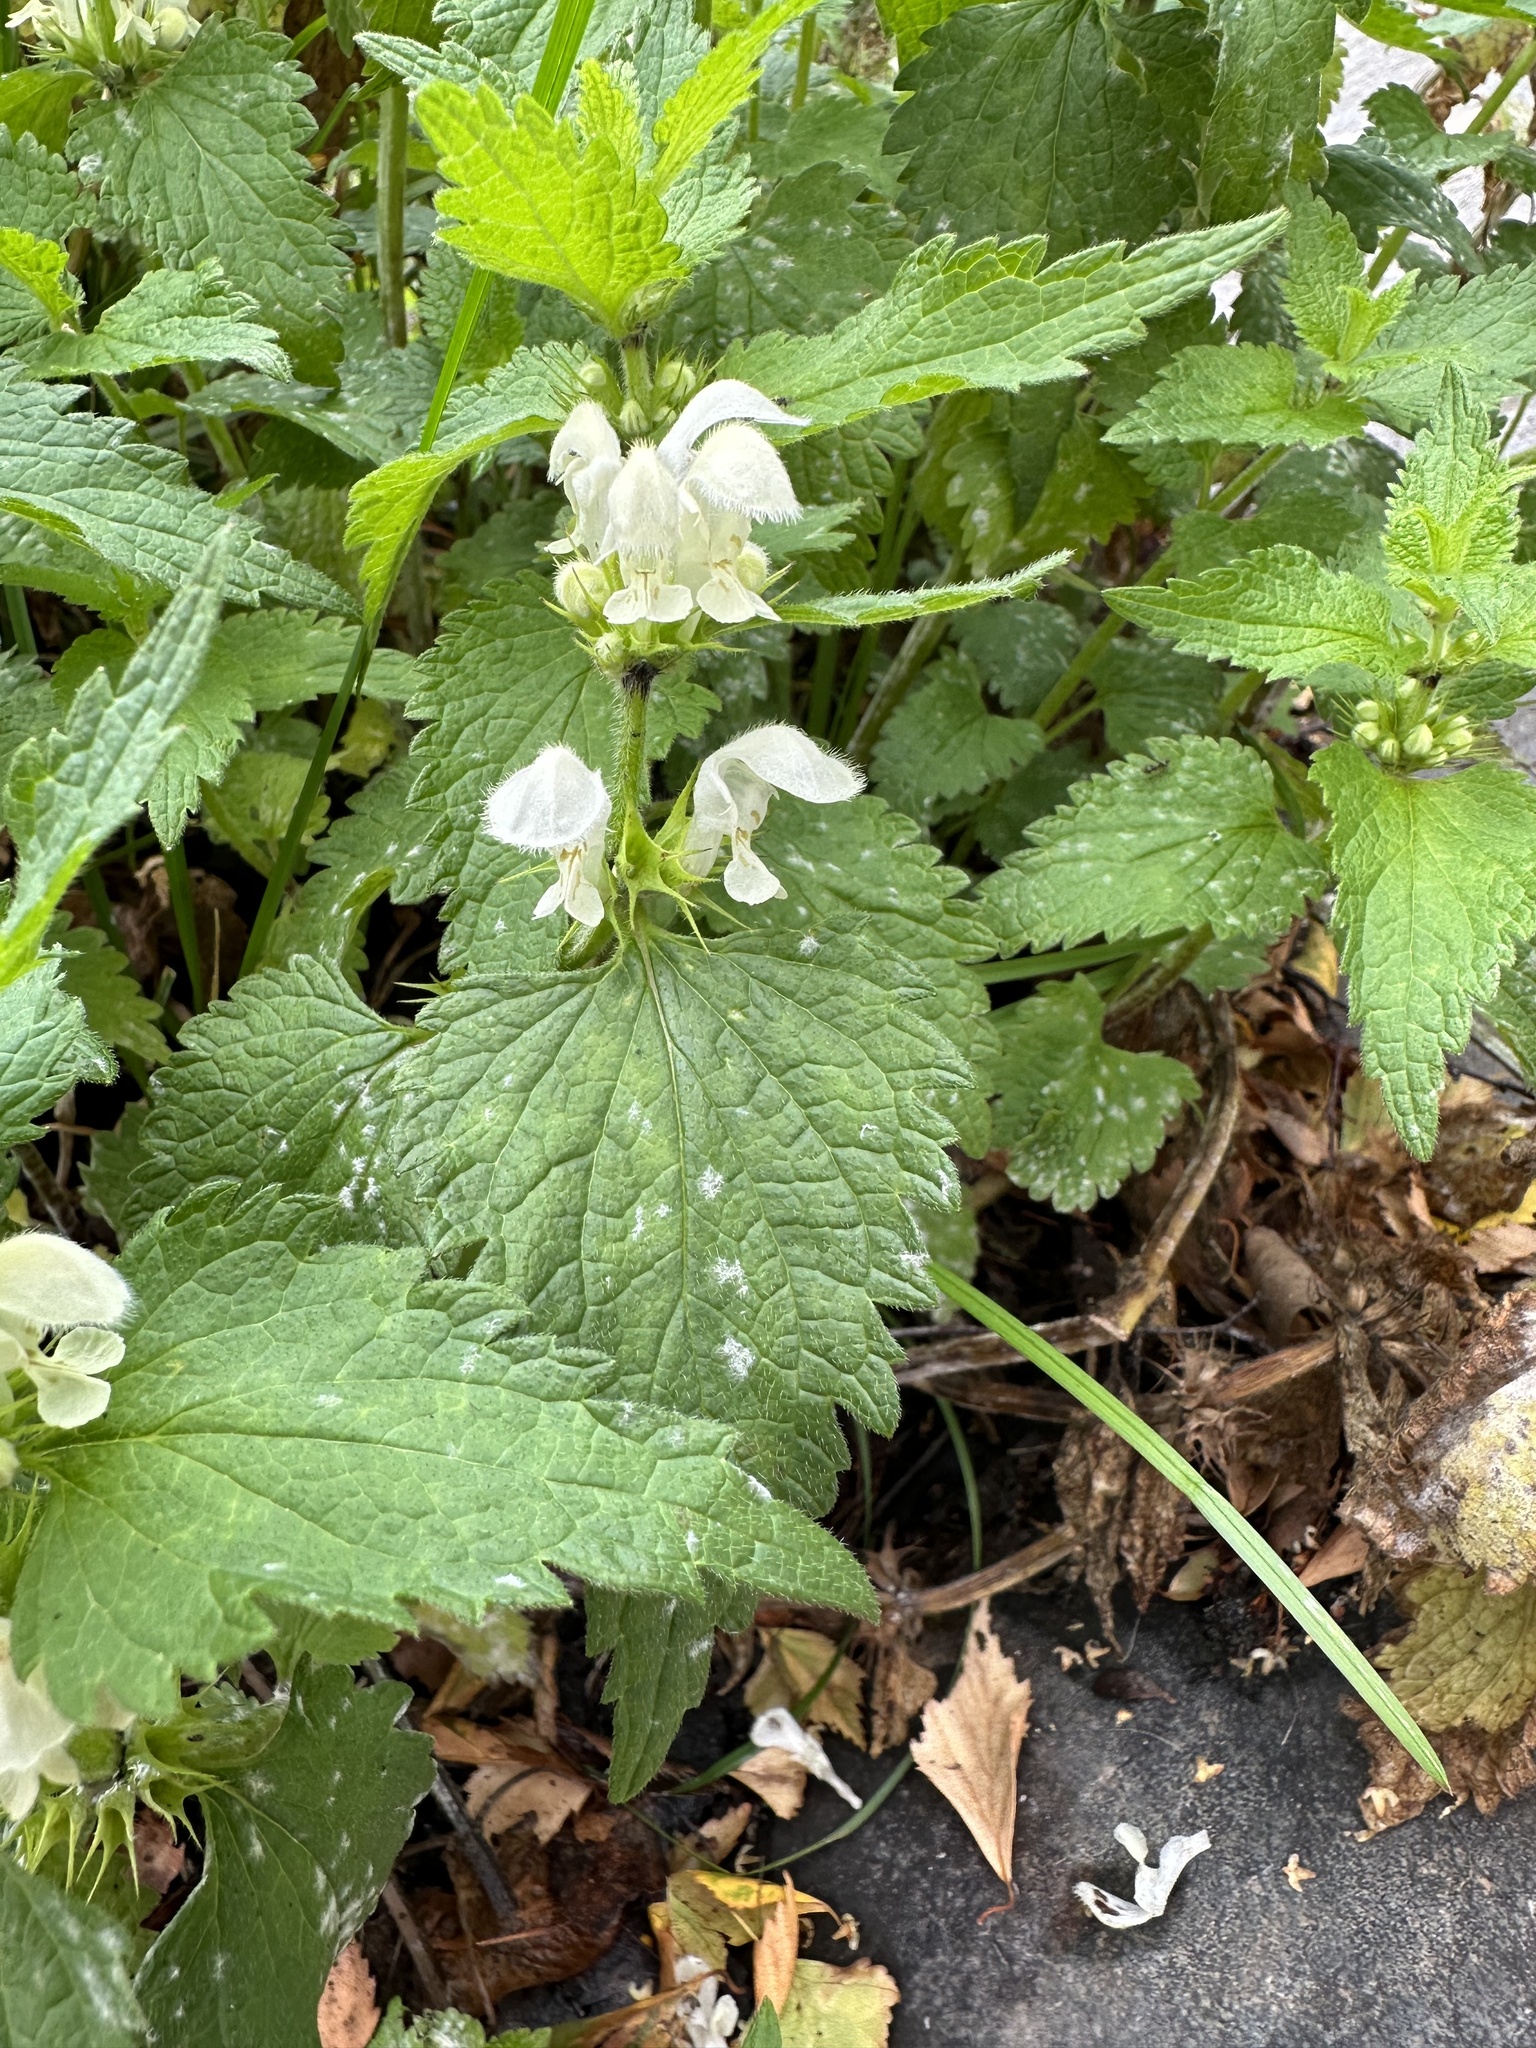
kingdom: Plantae
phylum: Tracheophyta
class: Magnoliopsida
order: Lamiales
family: Lamiaceae
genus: Lamium
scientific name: Lamium album
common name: White dead-nettle
